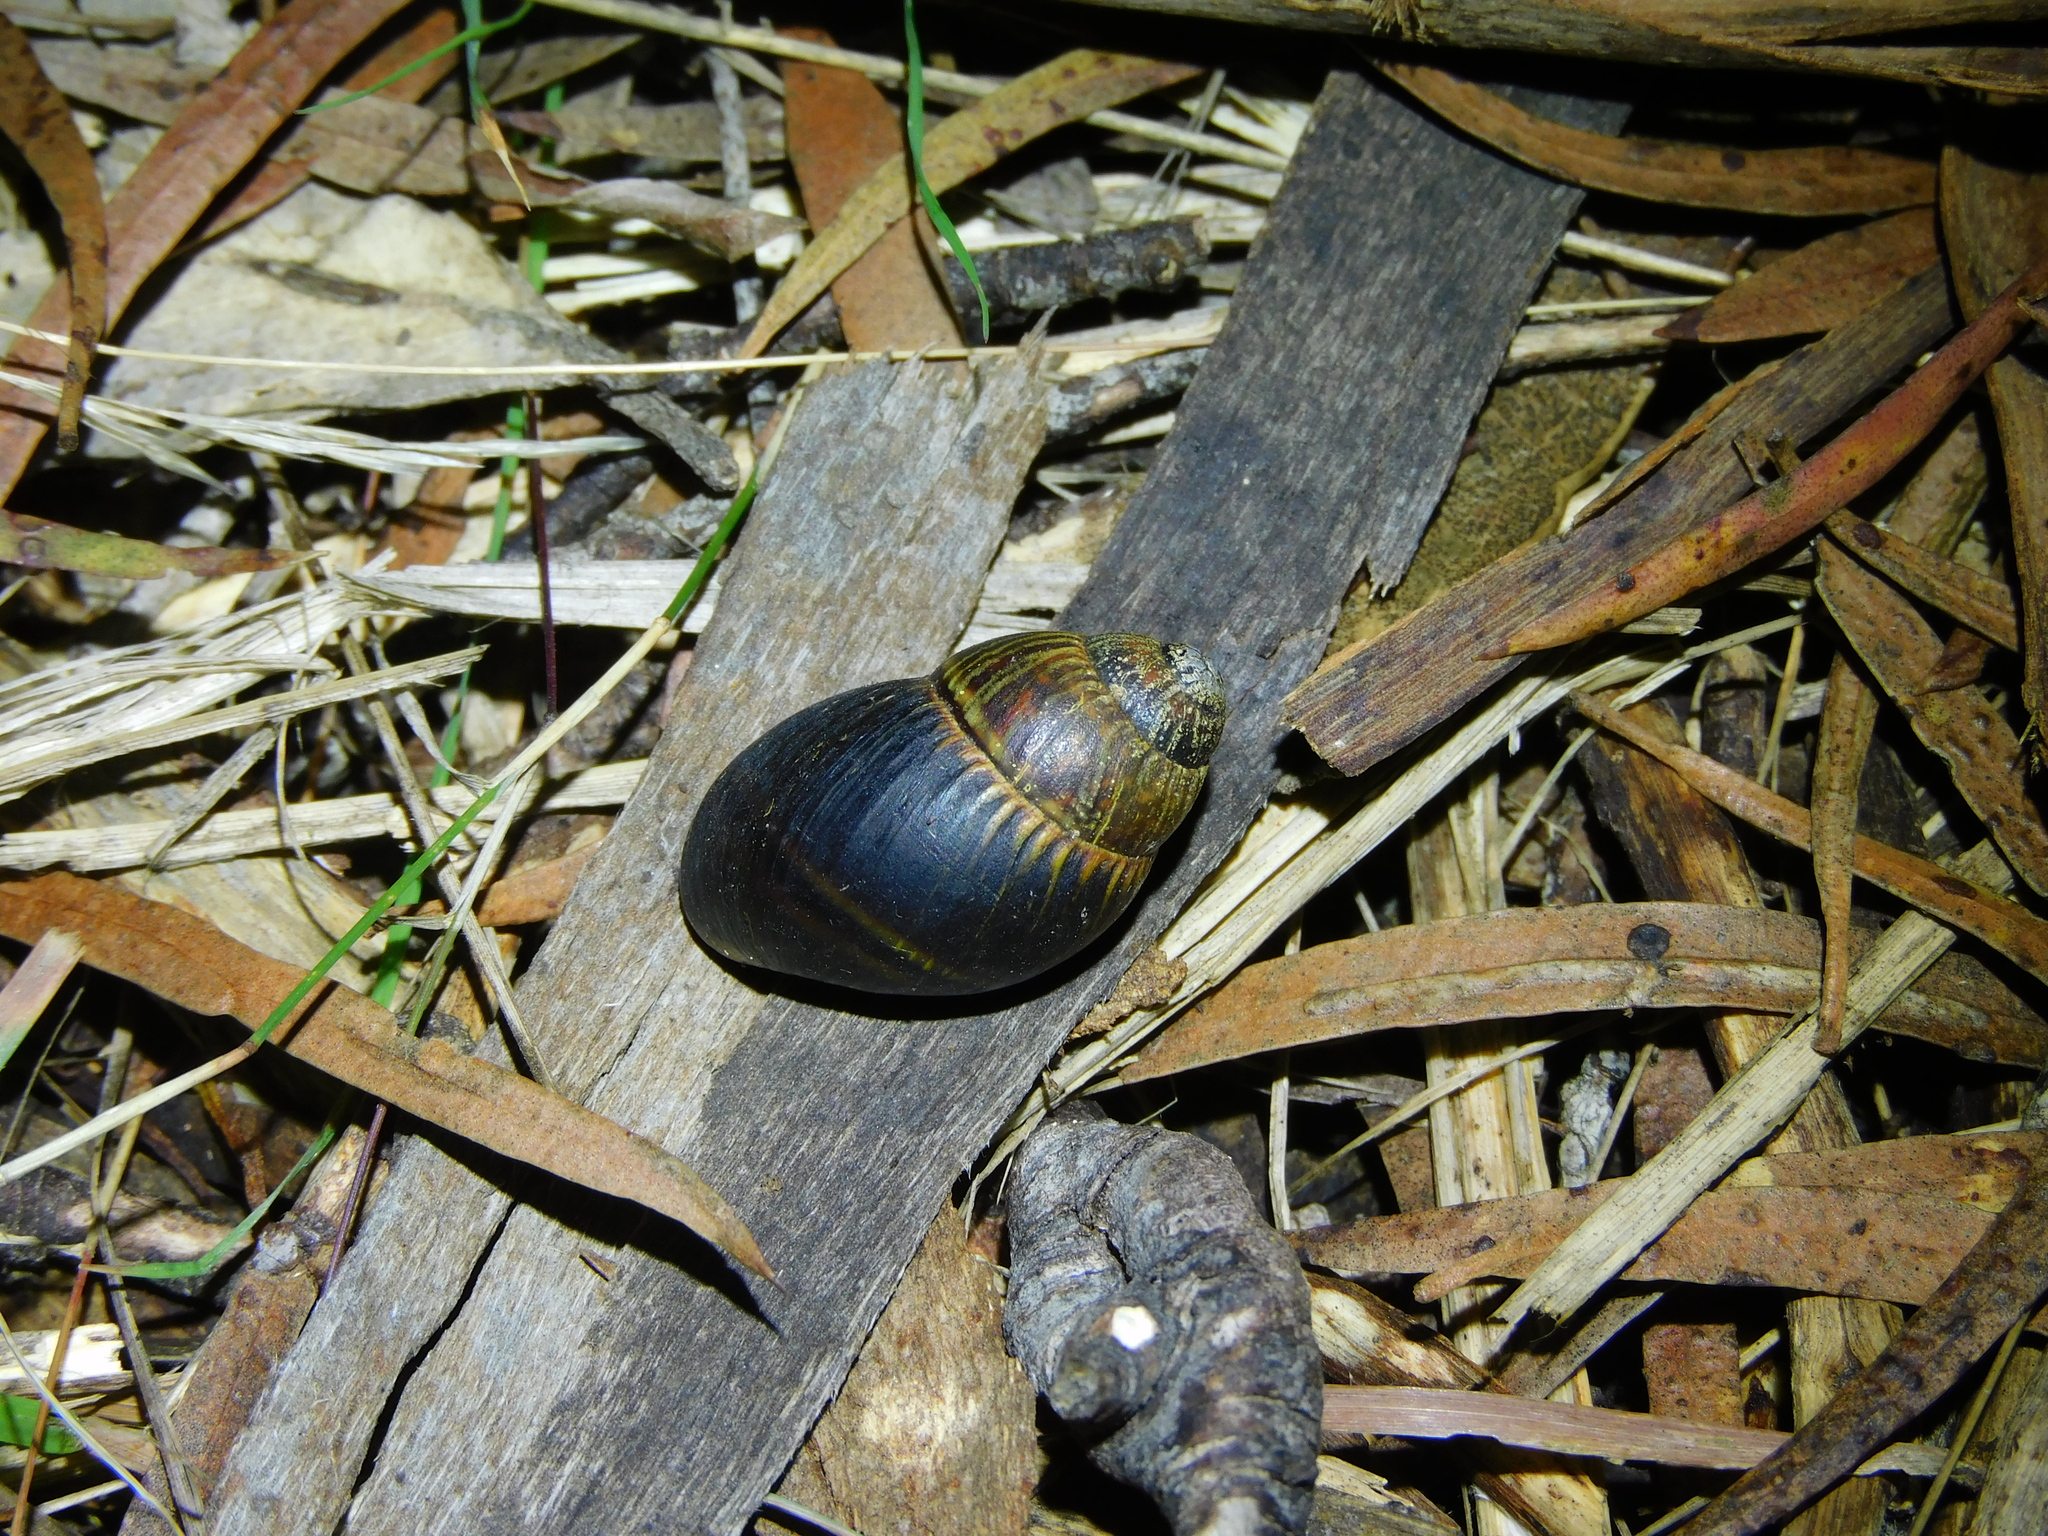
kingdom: Animalia
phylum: Mollusca
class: Gastropoda
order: Stylommatophora
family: Caryodidae
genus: Caryodes
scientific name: Caryodes dufresnii
